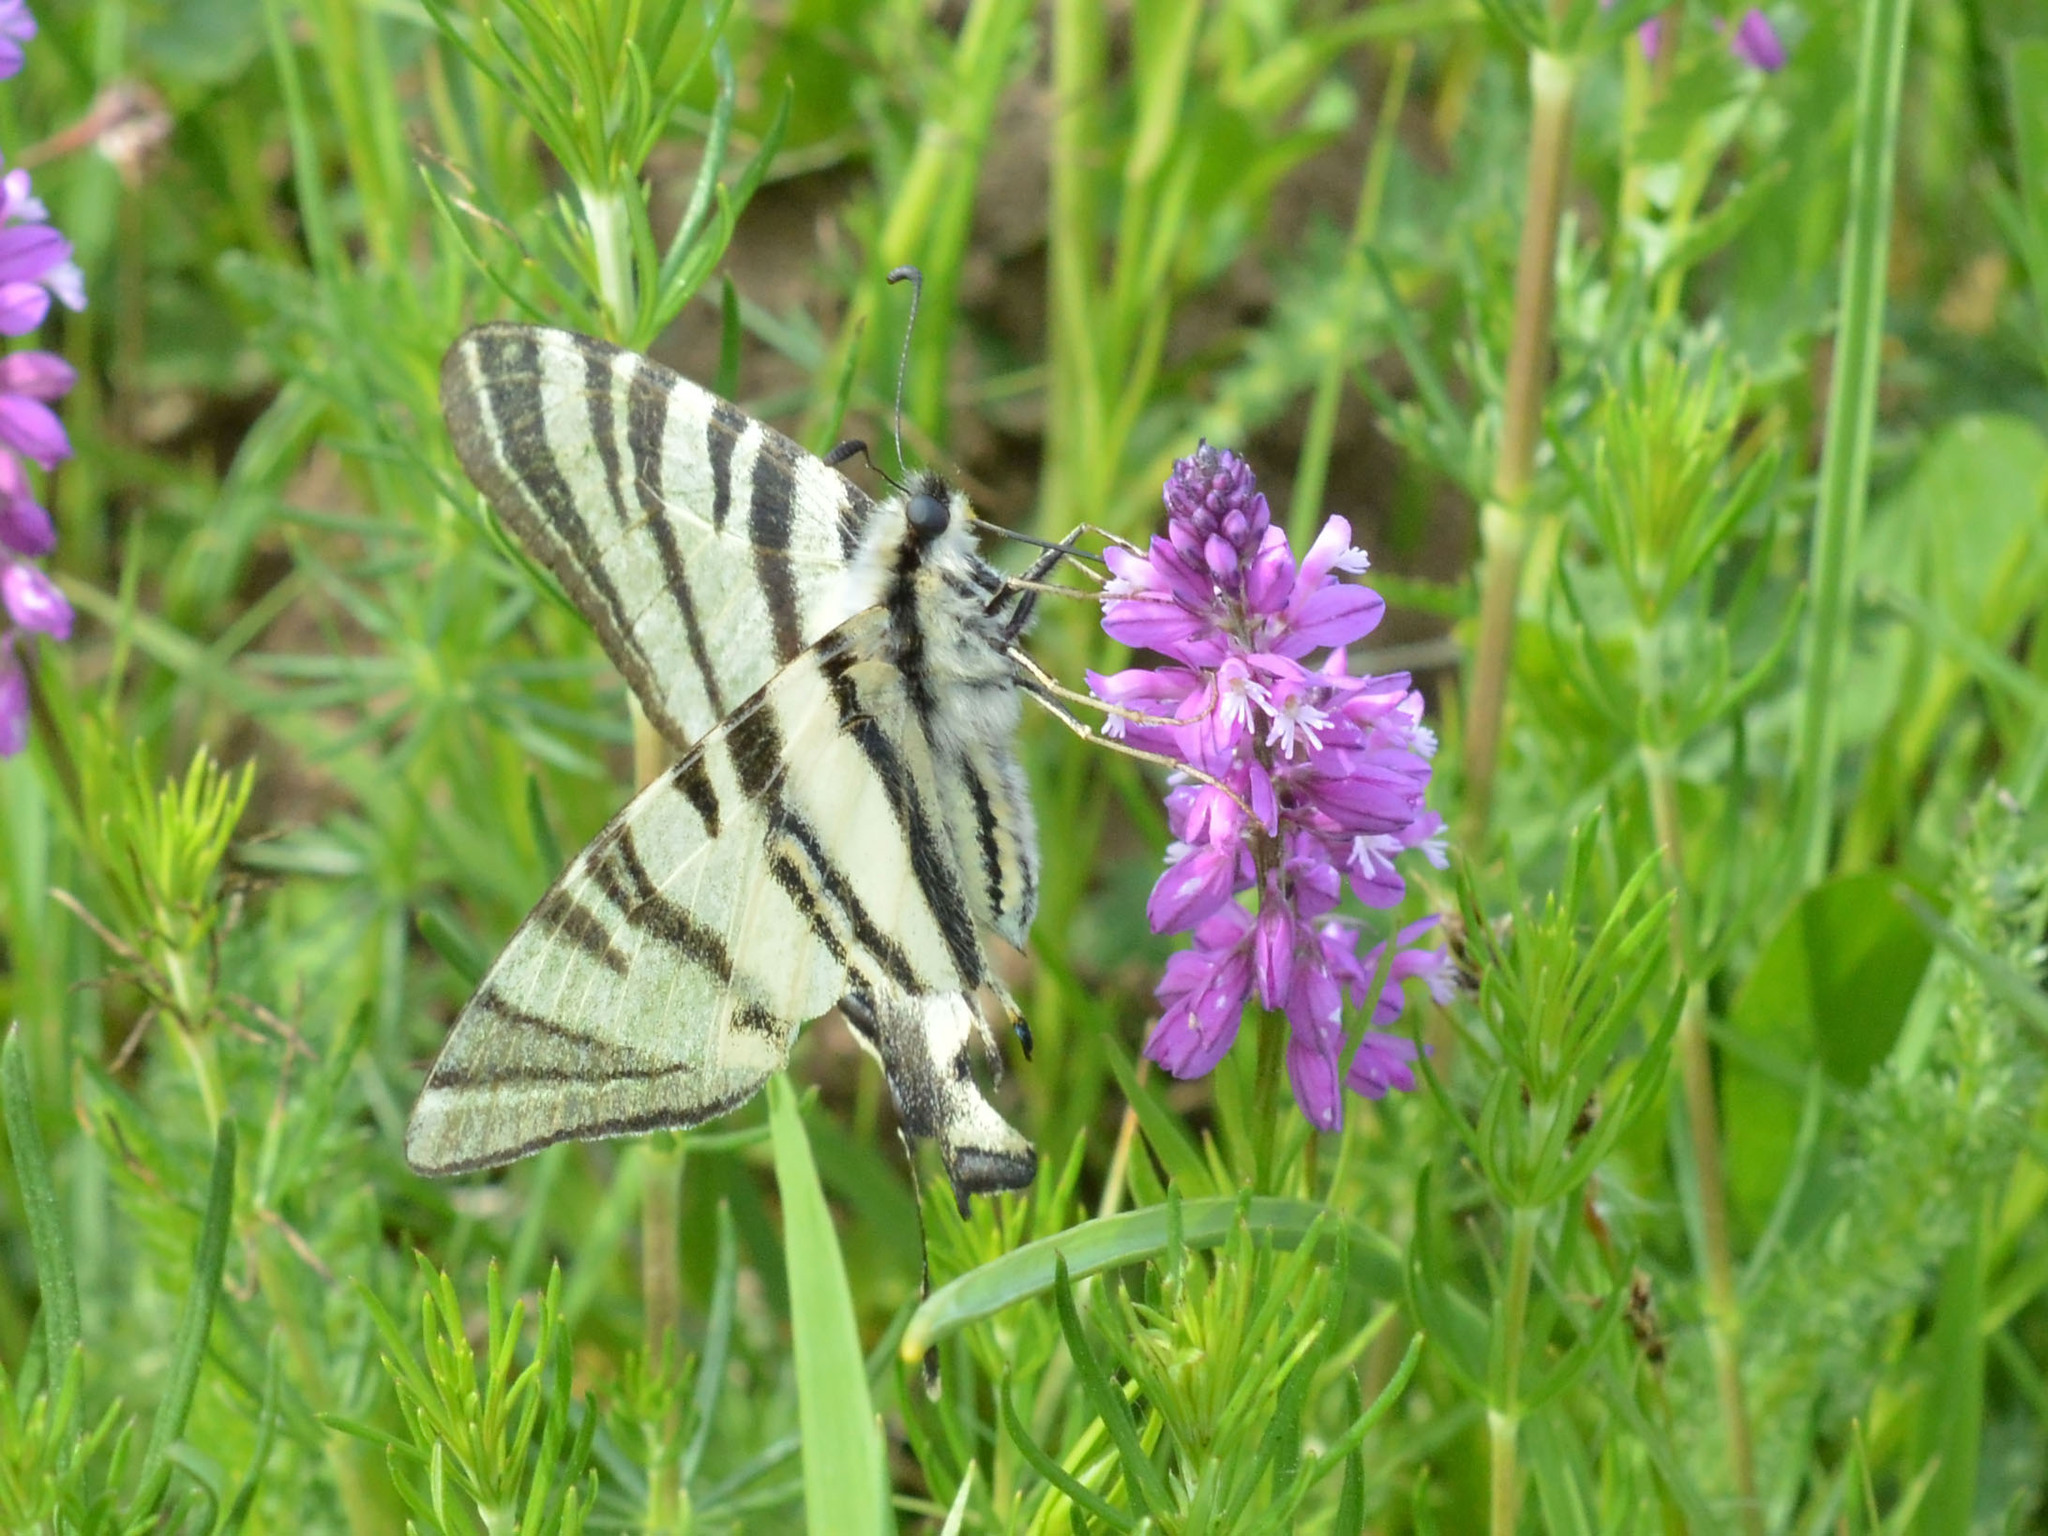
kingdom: Animalia
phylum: Arthropoda
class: Insecta
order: Lepidoptera
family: Papilionidae
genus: Iphiclides
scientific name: Iphiclides podalirius
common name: Scarce swallowtail
